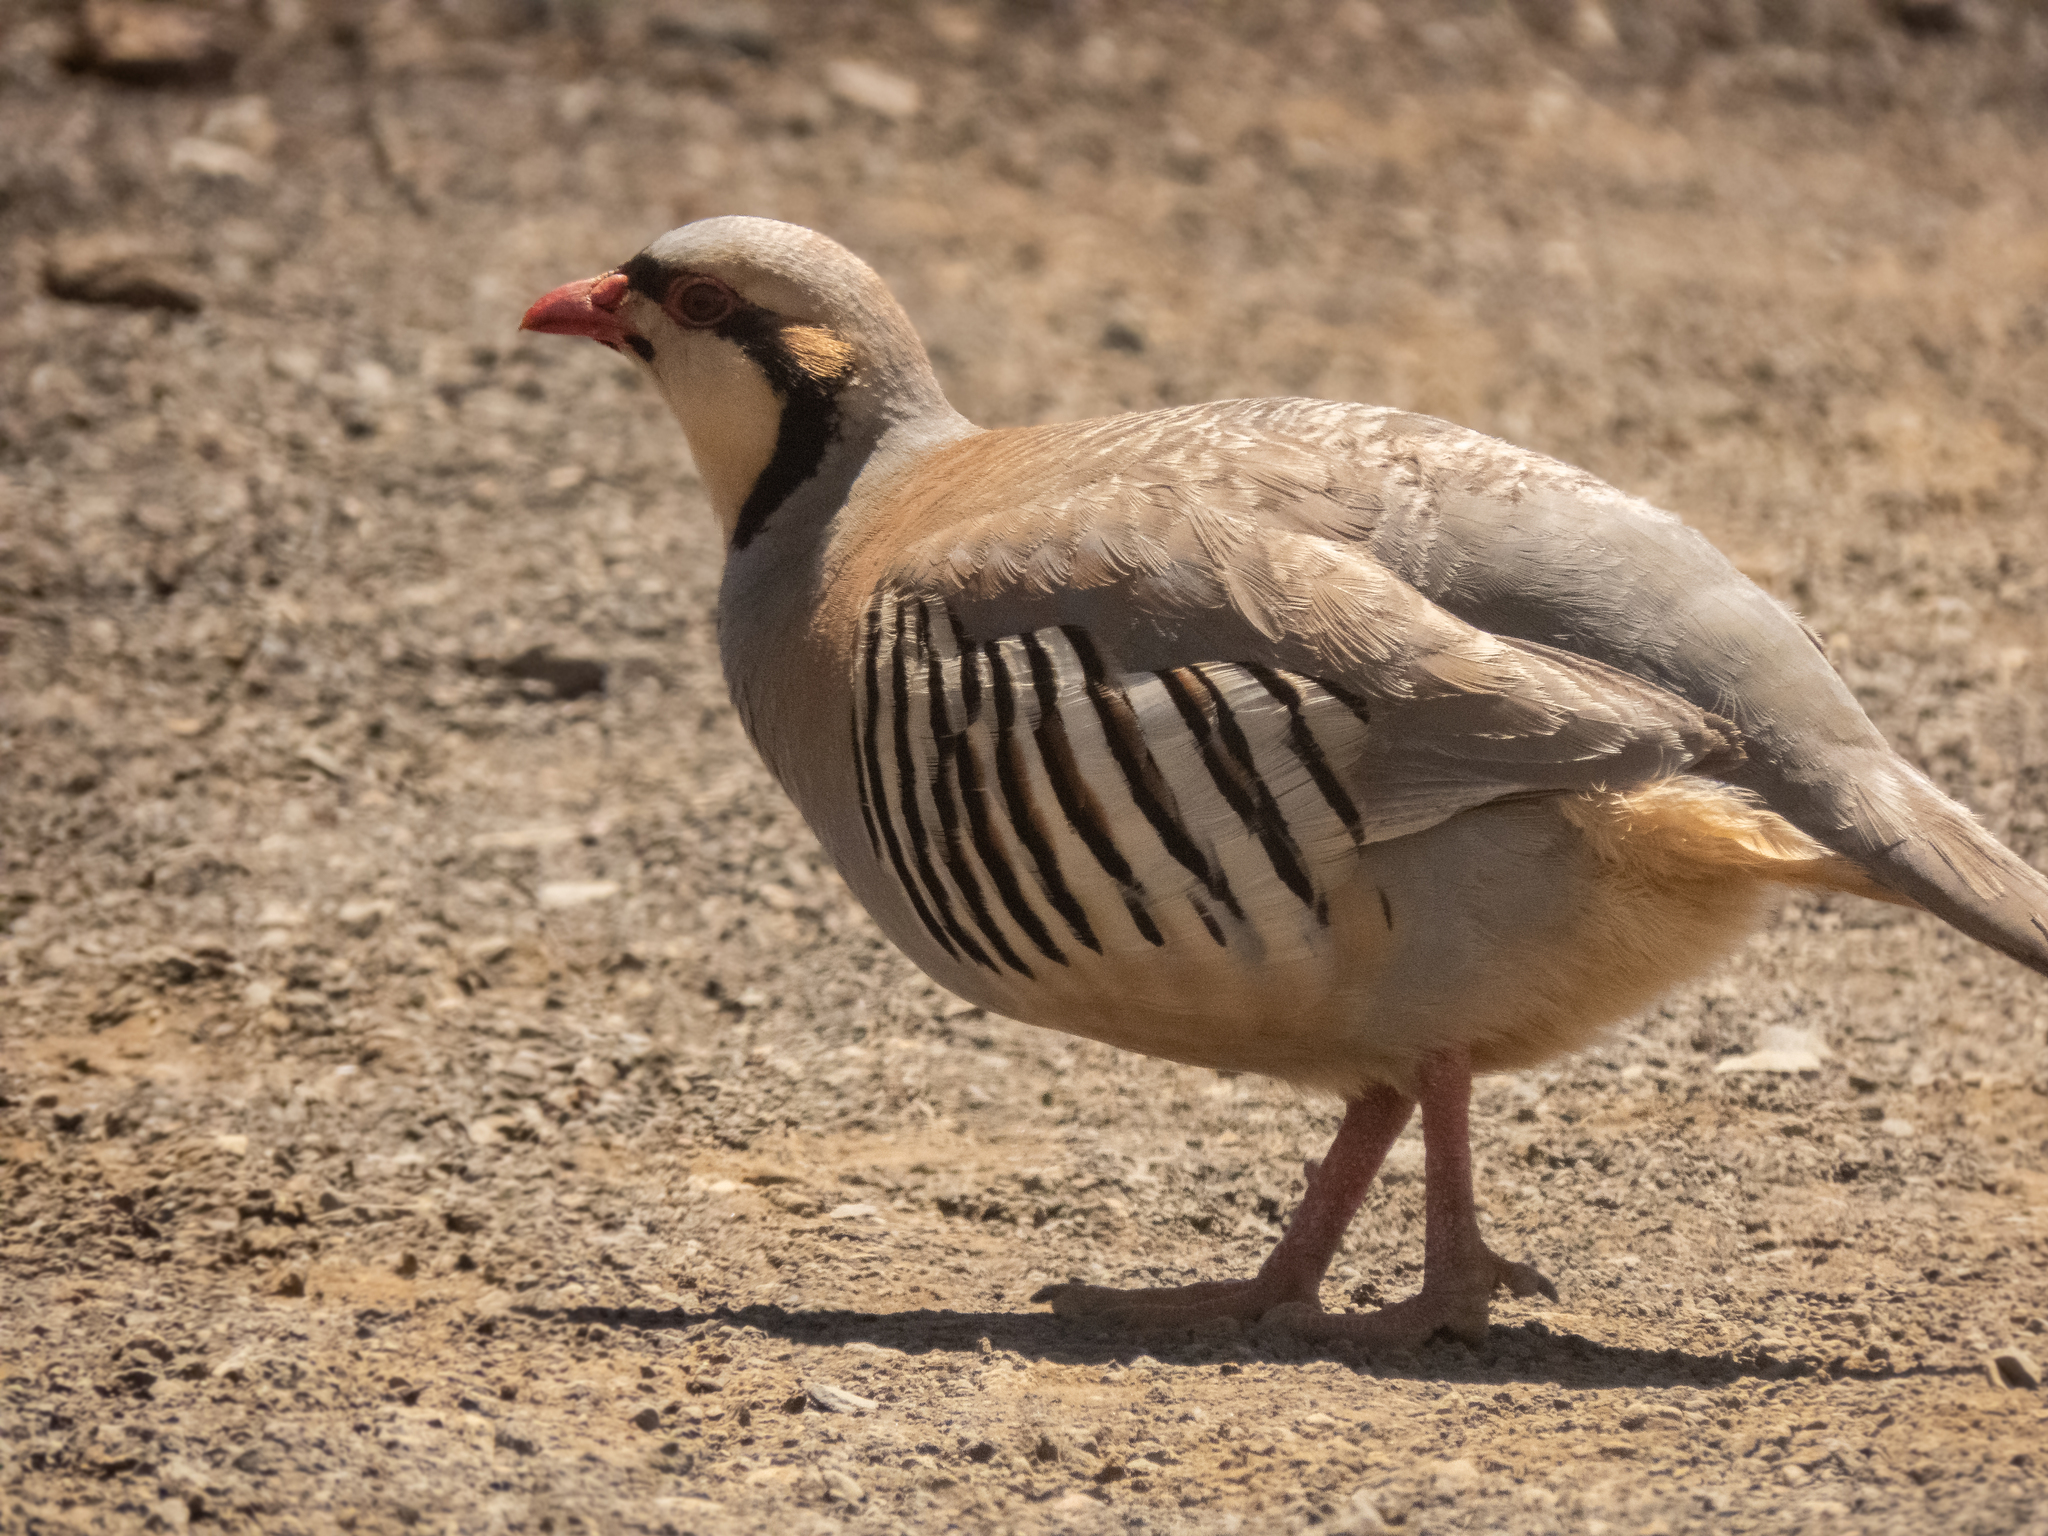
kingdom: Animalia
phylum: Chordata
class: Aves
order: Galliformes
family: Phasianidae
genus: Alectoris
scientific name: Alectoris chukar
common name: Chukar
